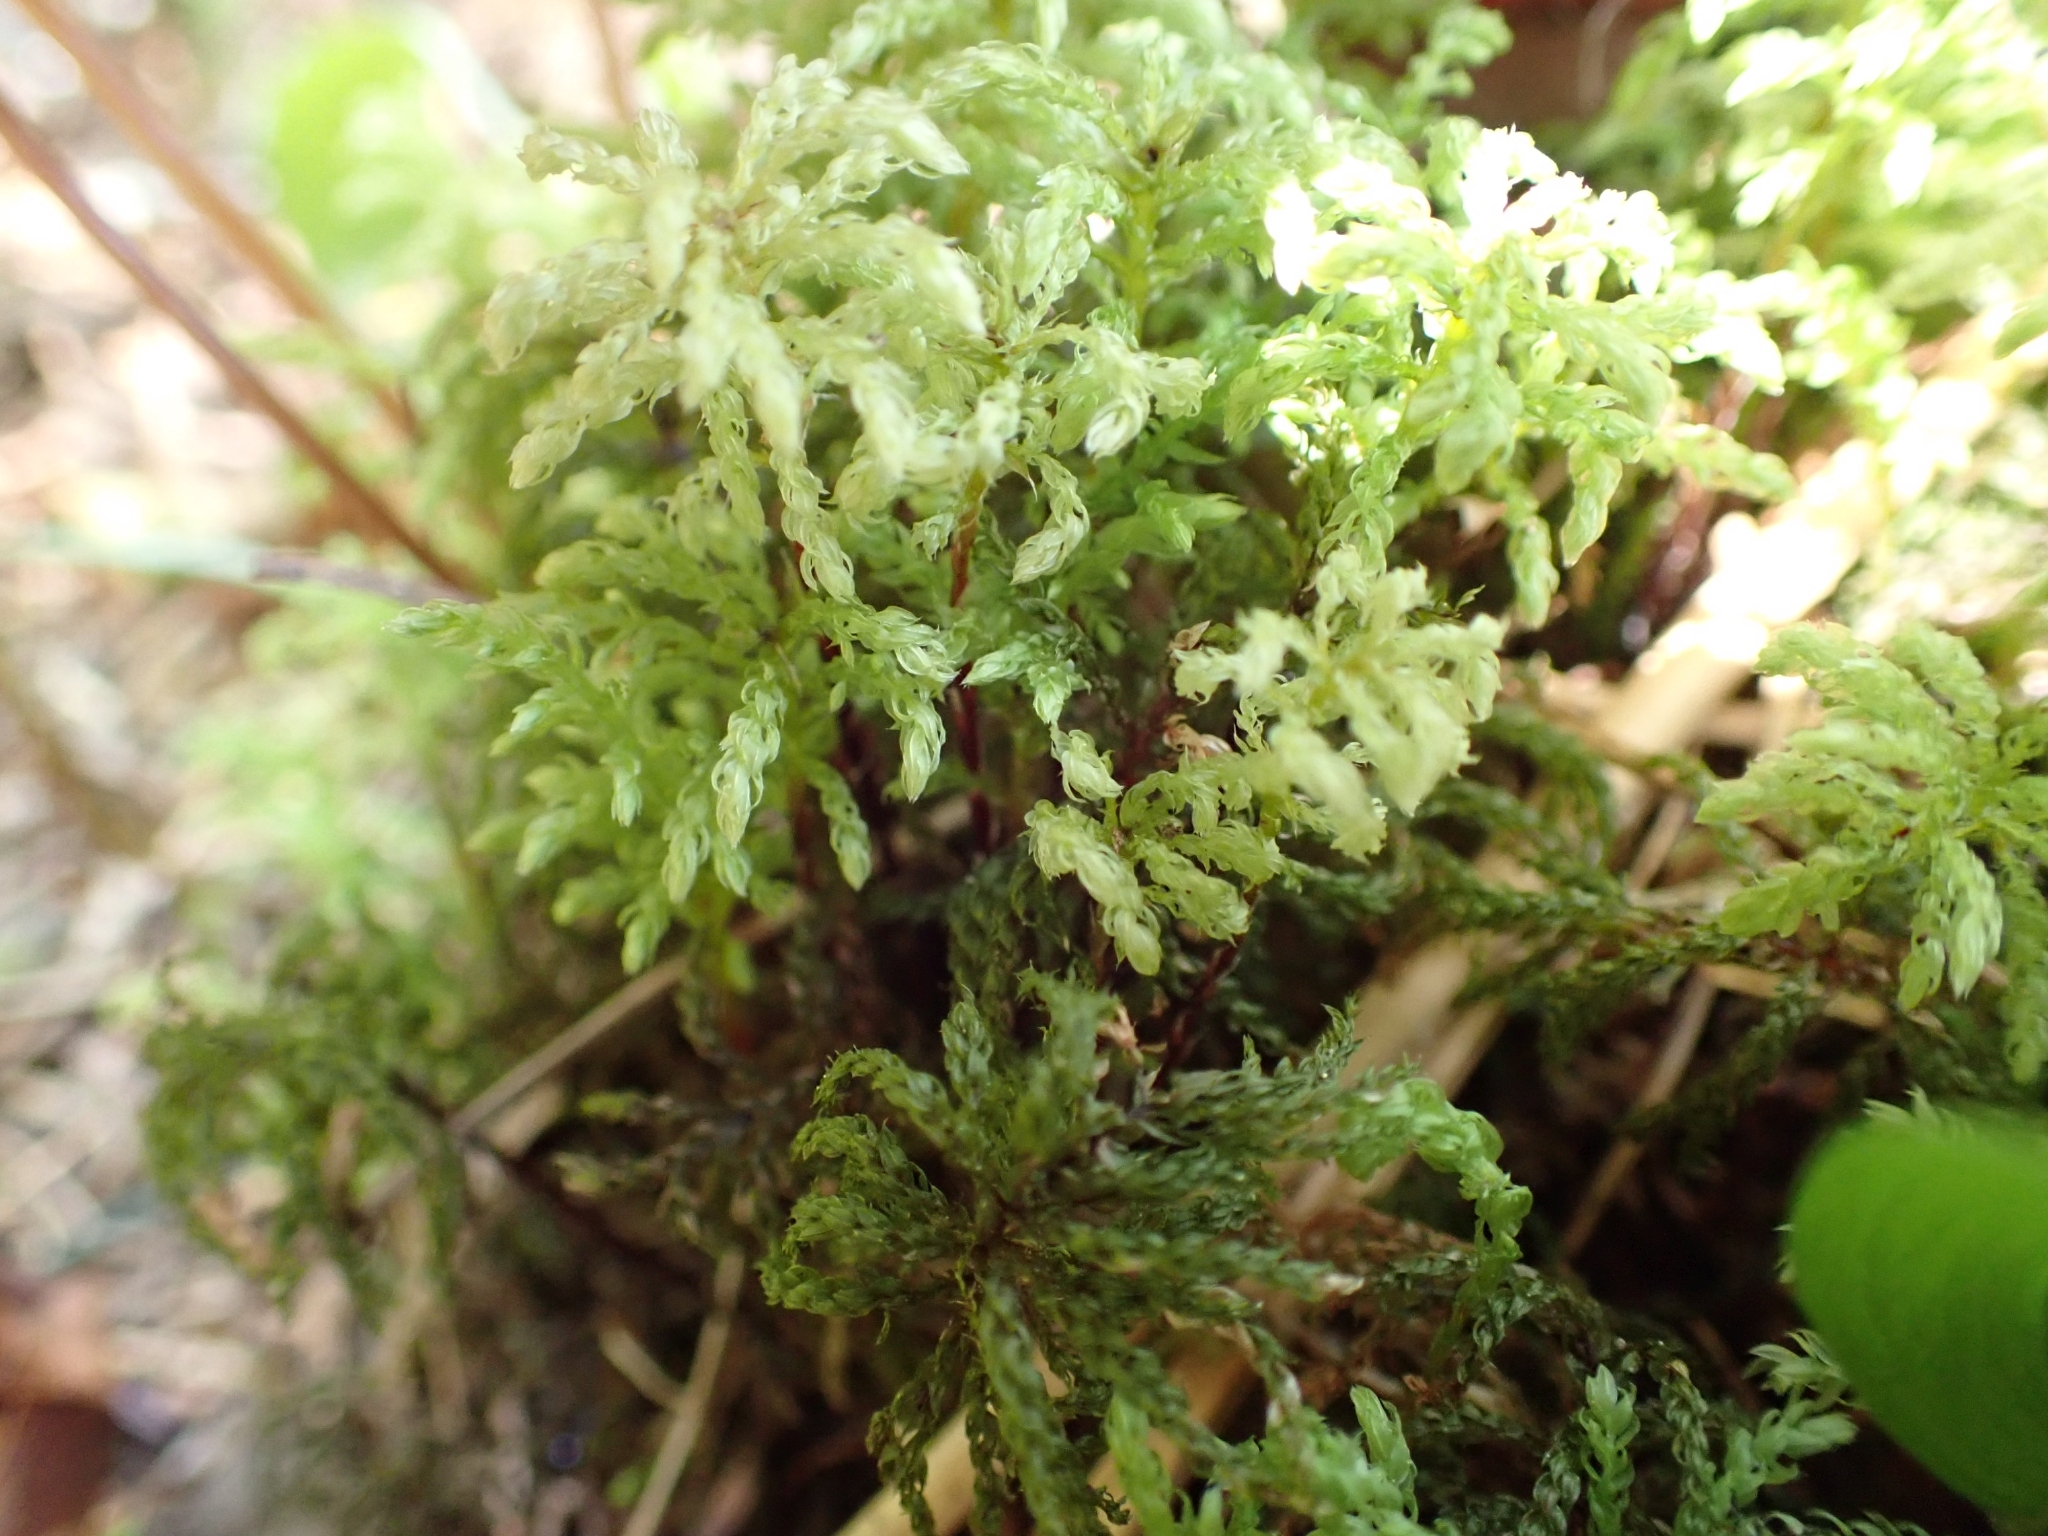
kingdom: Plantae
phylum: Bryophyta
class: Bryopsida
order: Bryales
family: Mniaceae
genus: Leucolepis
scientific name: Leucolepis acanthoneura
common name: Leucolepis umbrella moss
